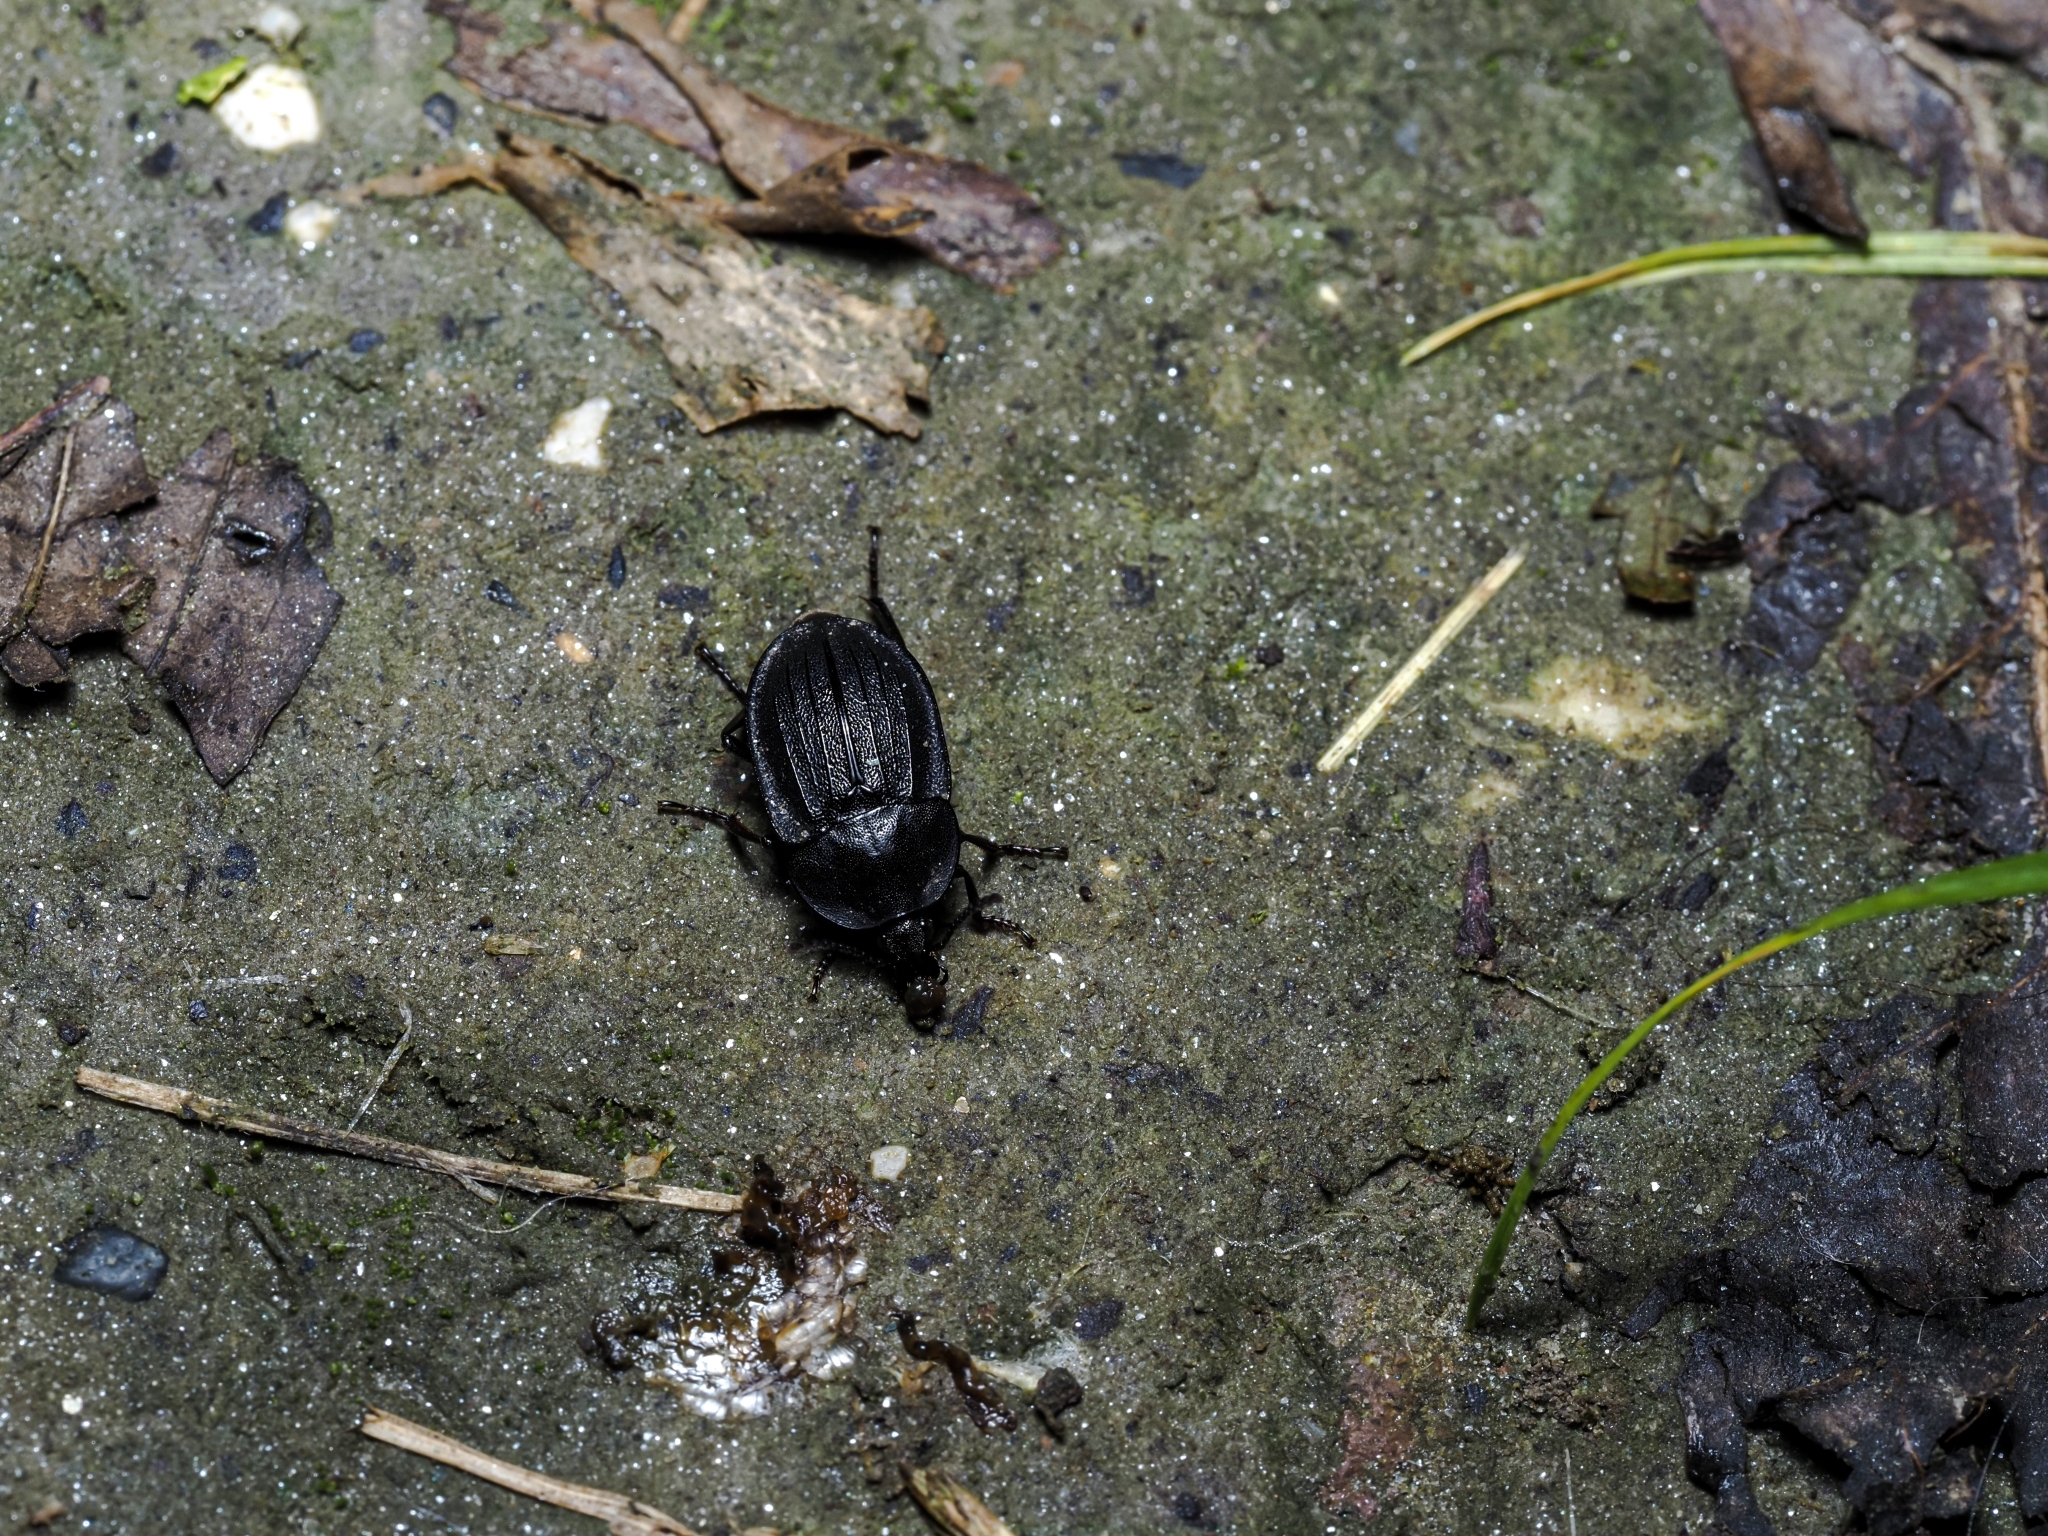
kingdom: Animalia
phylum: Arthropoda
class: Insecta
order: Coleoptera
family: Staphylinidae
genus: Silpha
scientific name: Silpha atrata
